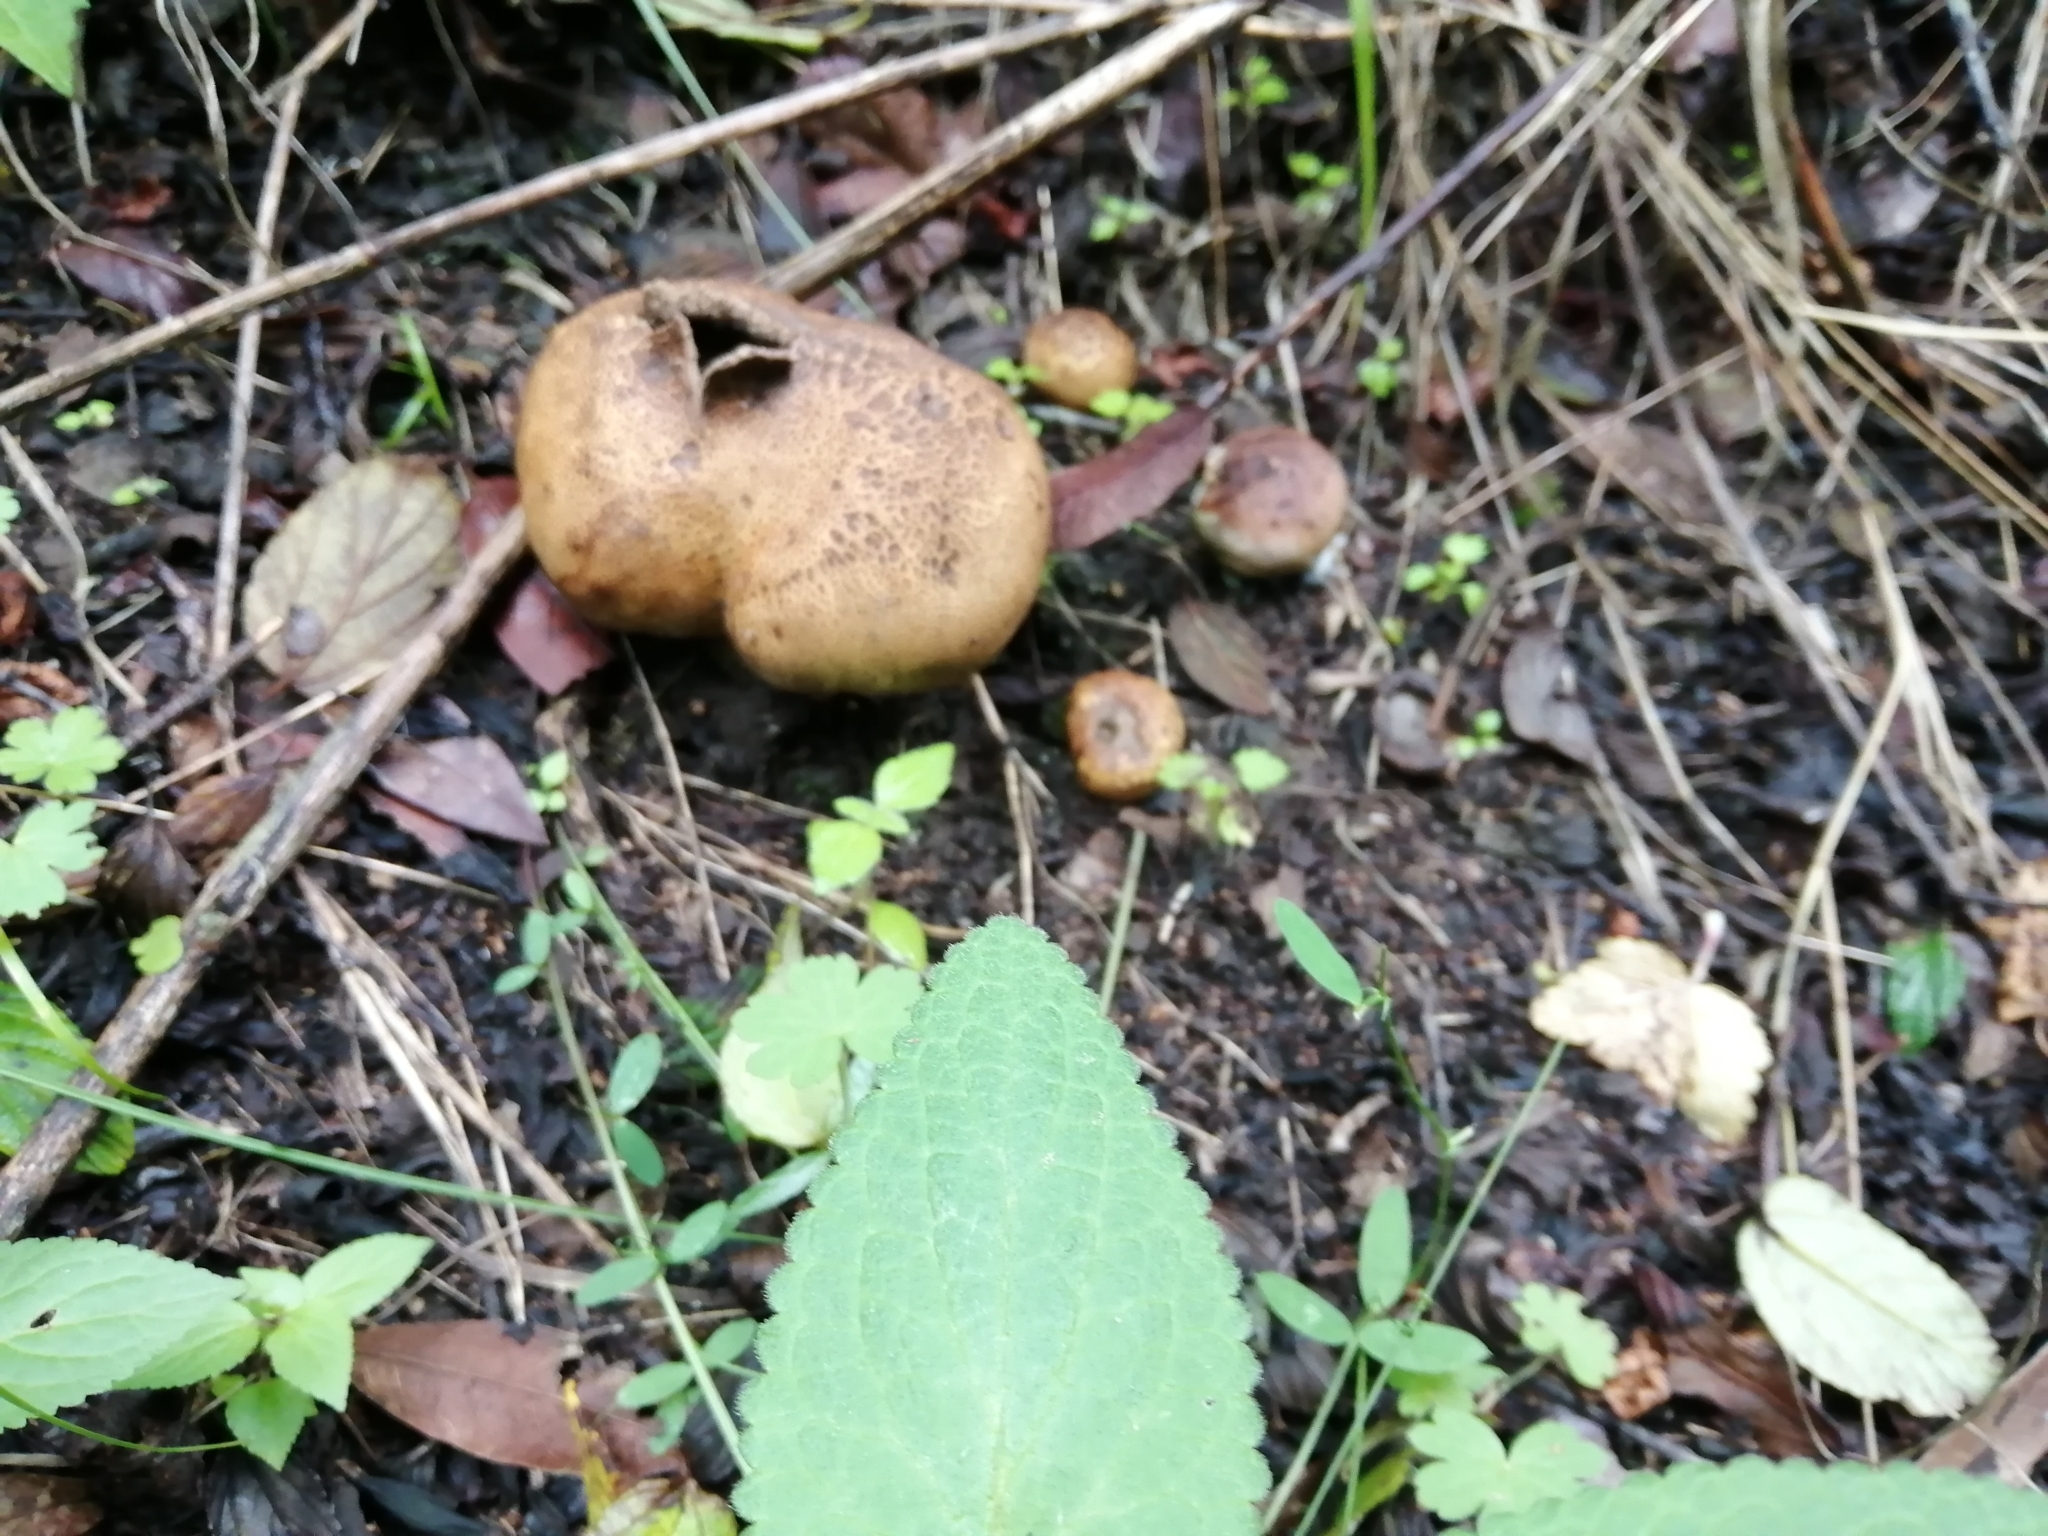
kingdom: Fungi
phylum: Basidiomycota
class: Agaricomycetes
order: Boletales
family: Sclerodermataceae
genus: Scleroderma
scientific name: Scleroderma cepa
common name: Onion earthball
